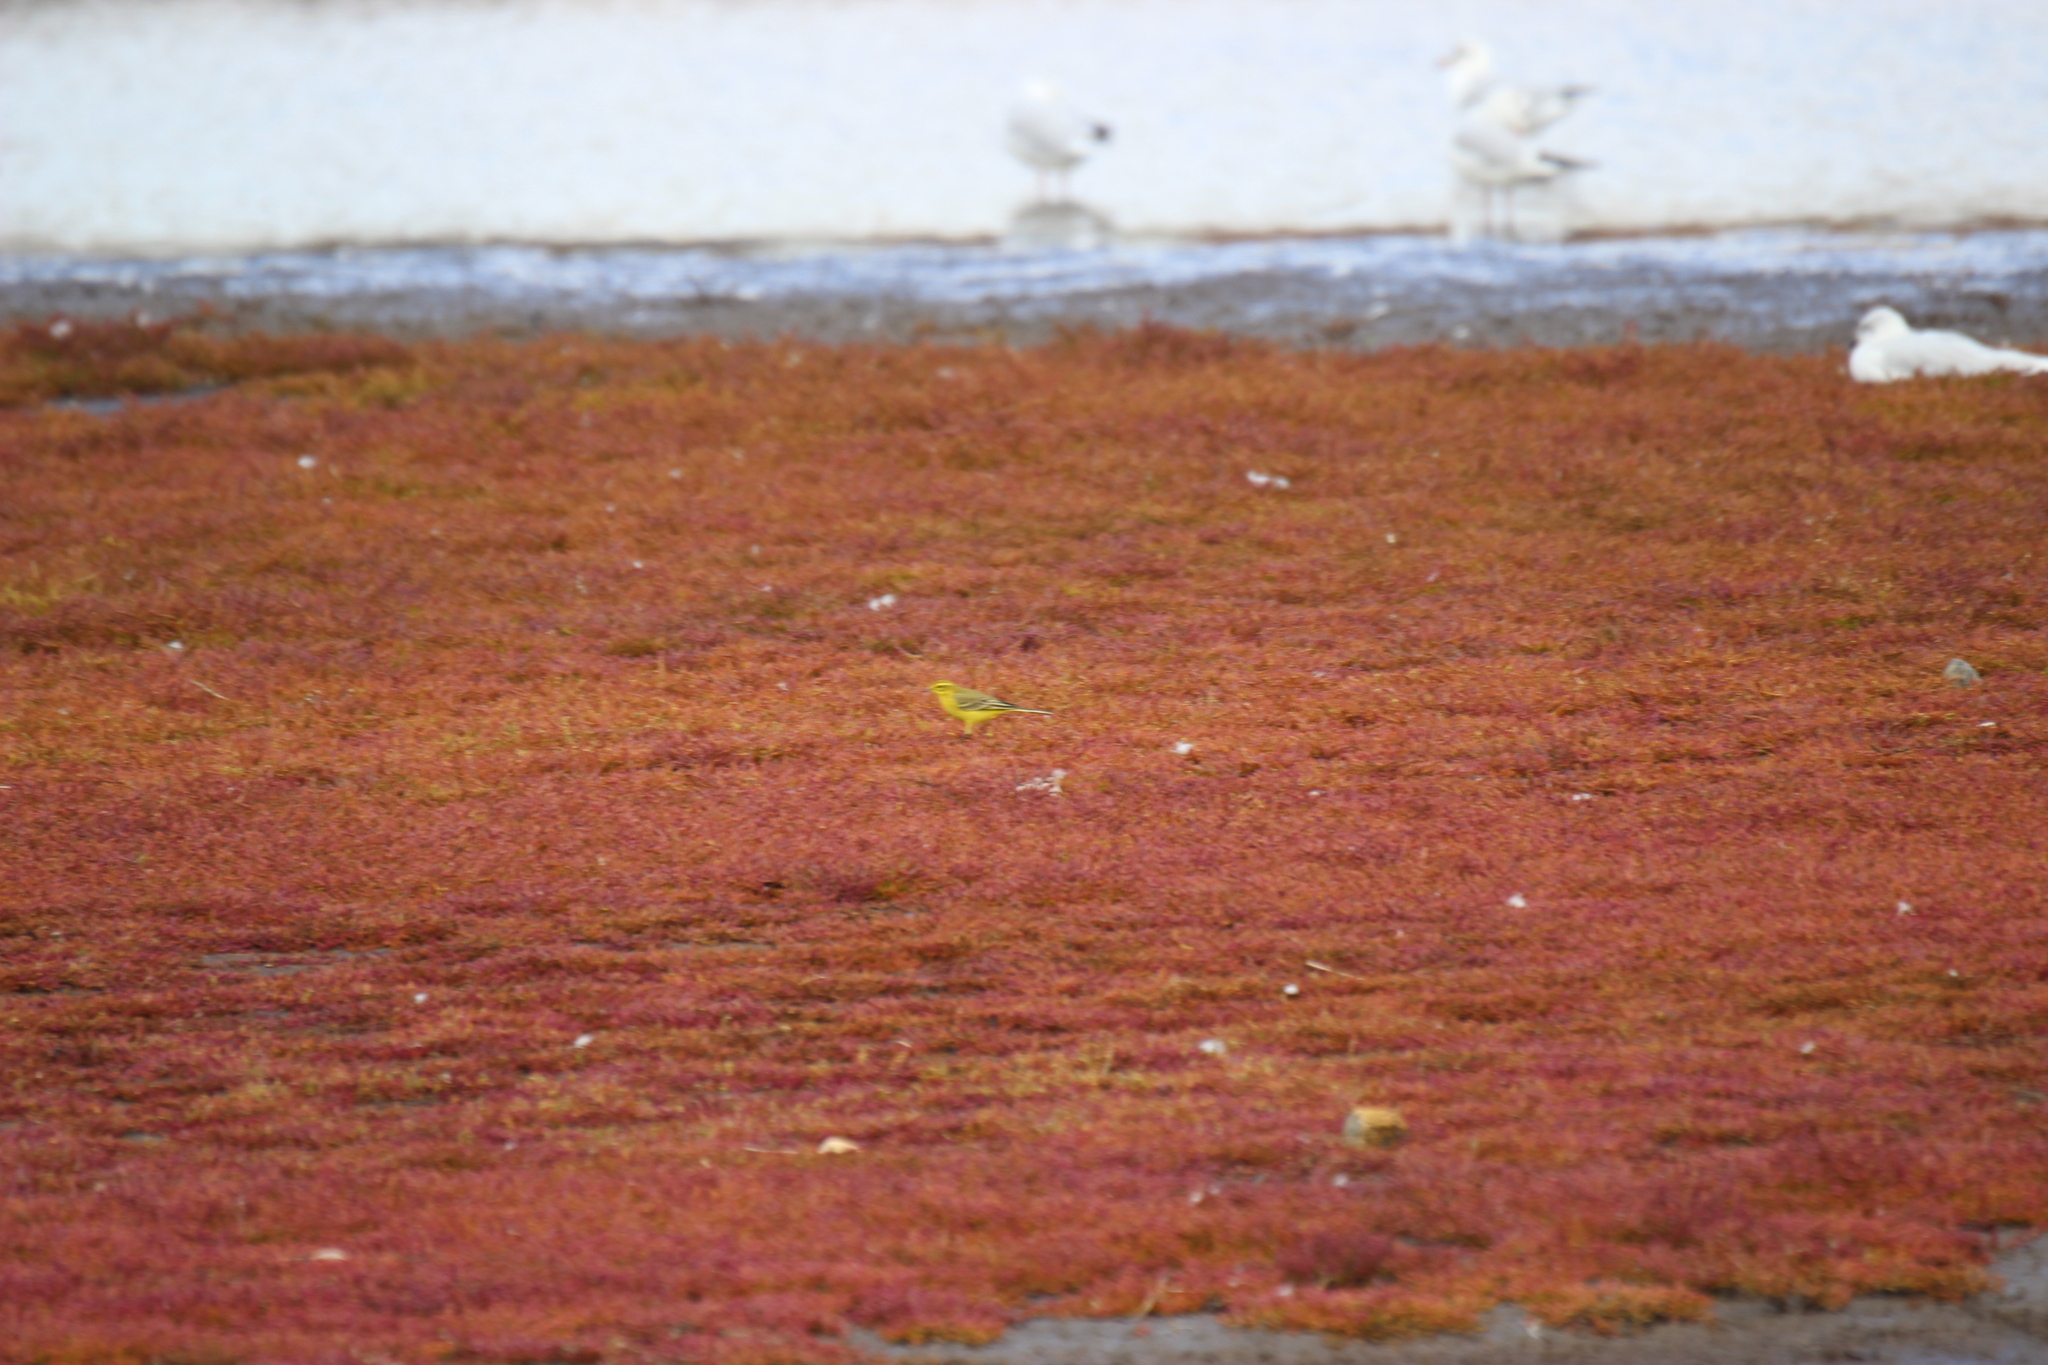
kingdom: Animalia
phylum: Chordata
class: Aves
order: Passeriformes
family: Motacillidae
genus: Motacilla
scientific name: Motacilla flava
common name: Western yellow wagtail
